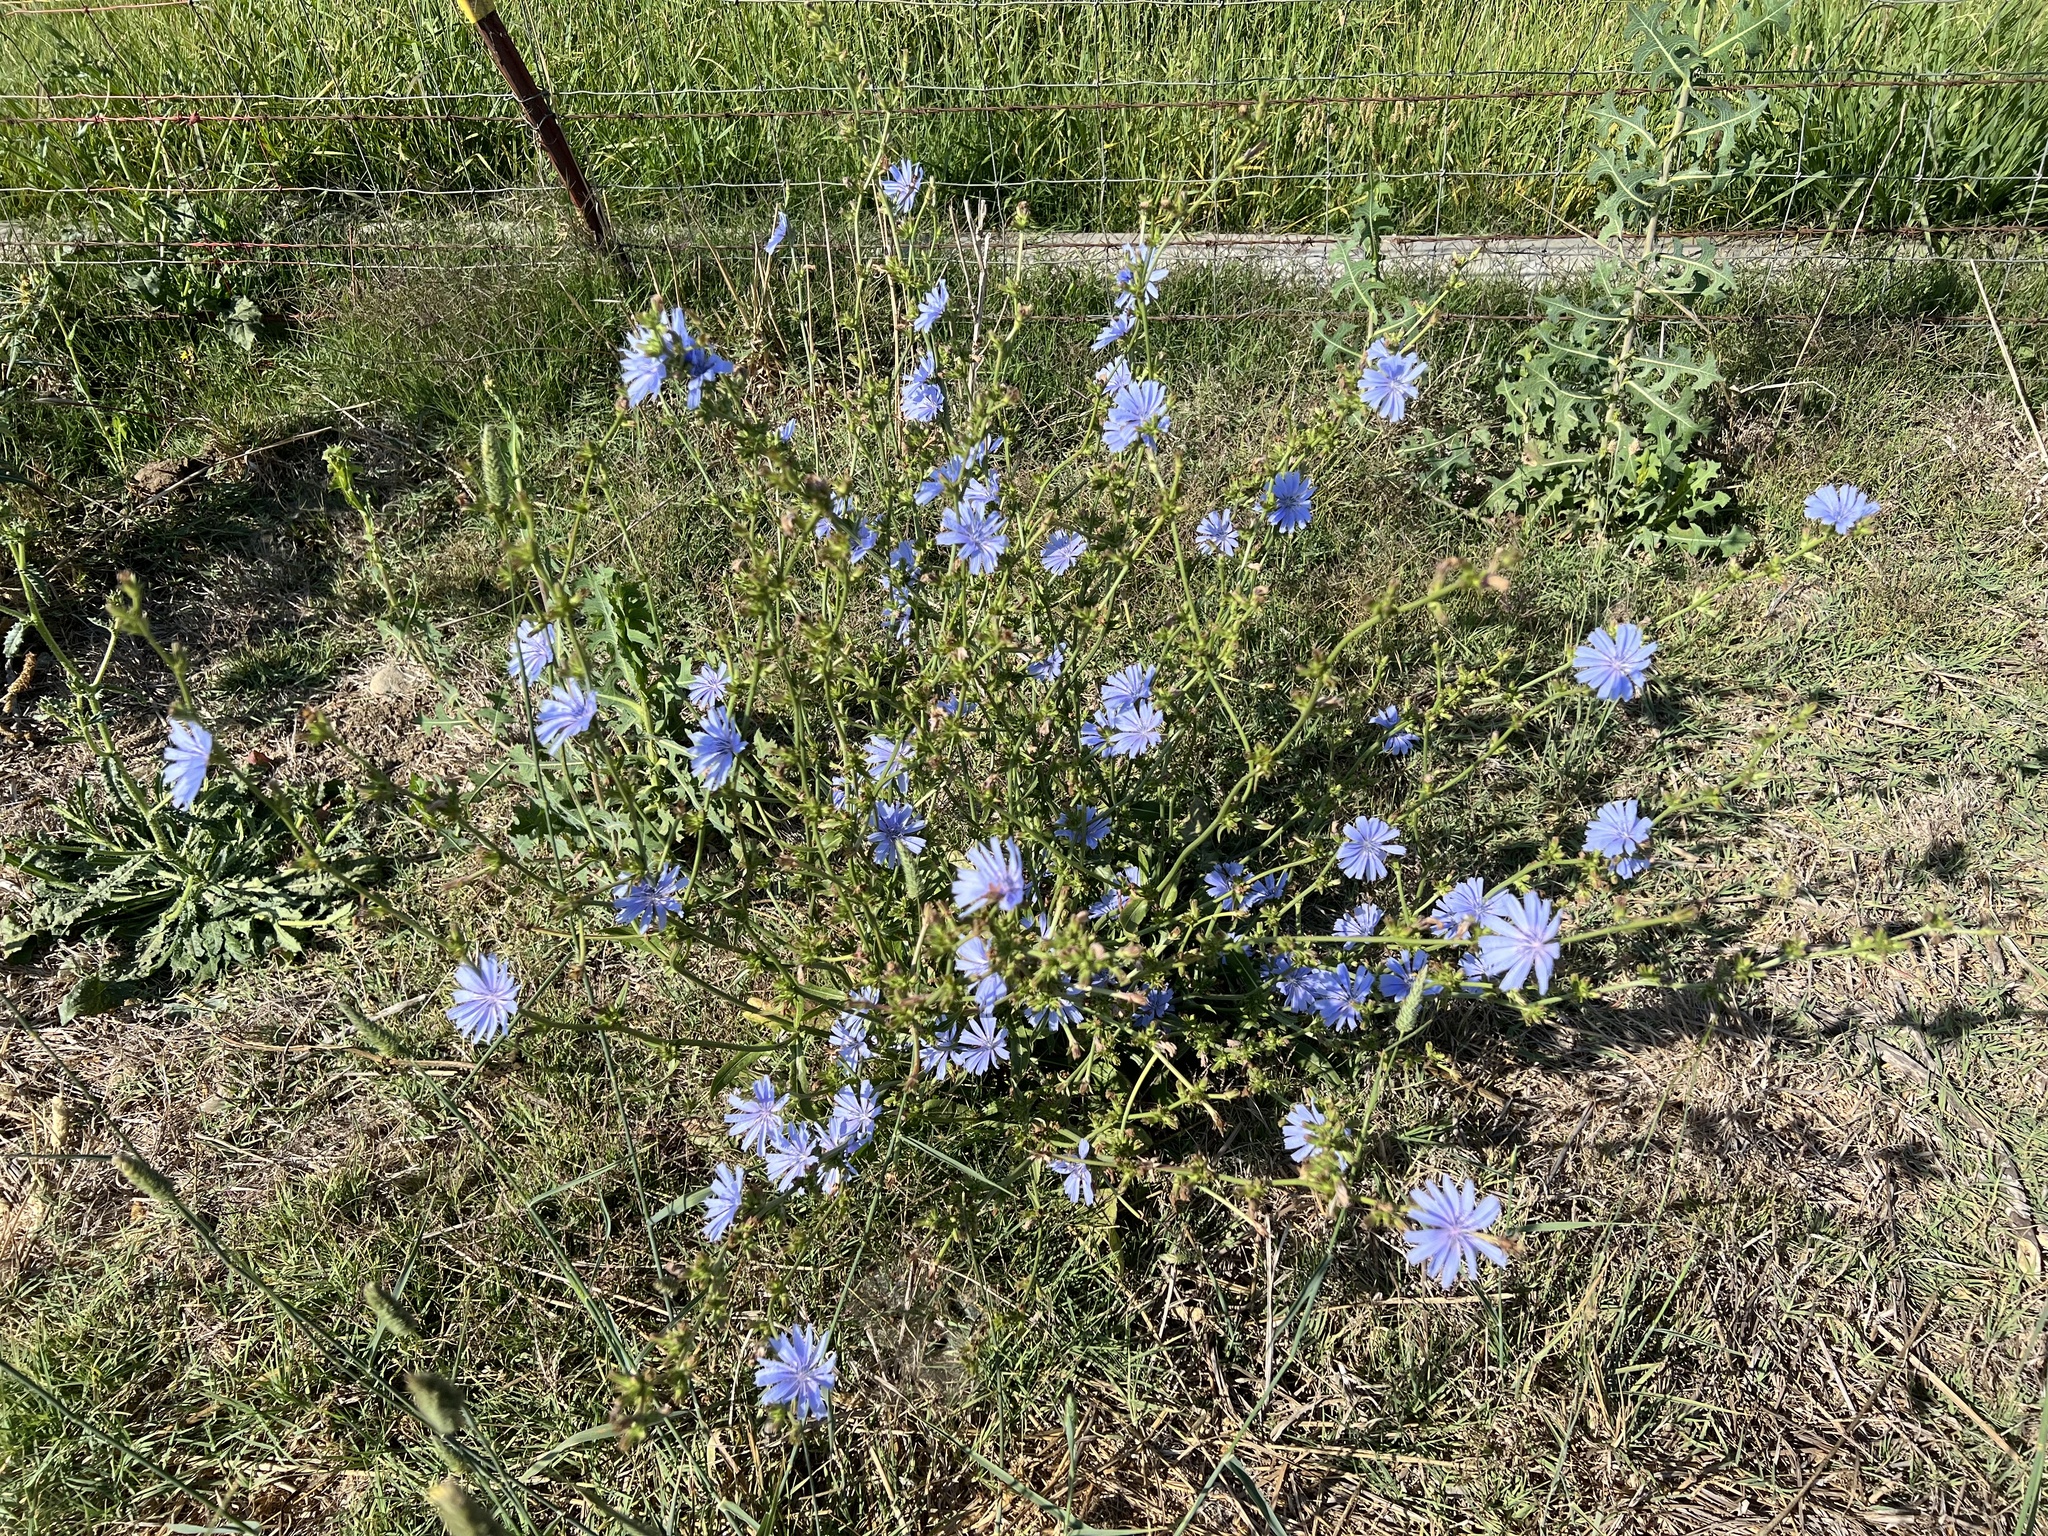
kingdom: Plantae
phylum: Tracheophyta
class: Magnoliopsida
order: Asterales
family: Asteraceae
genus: Cichorium
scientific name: Cichorium intybus
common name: Chicory
